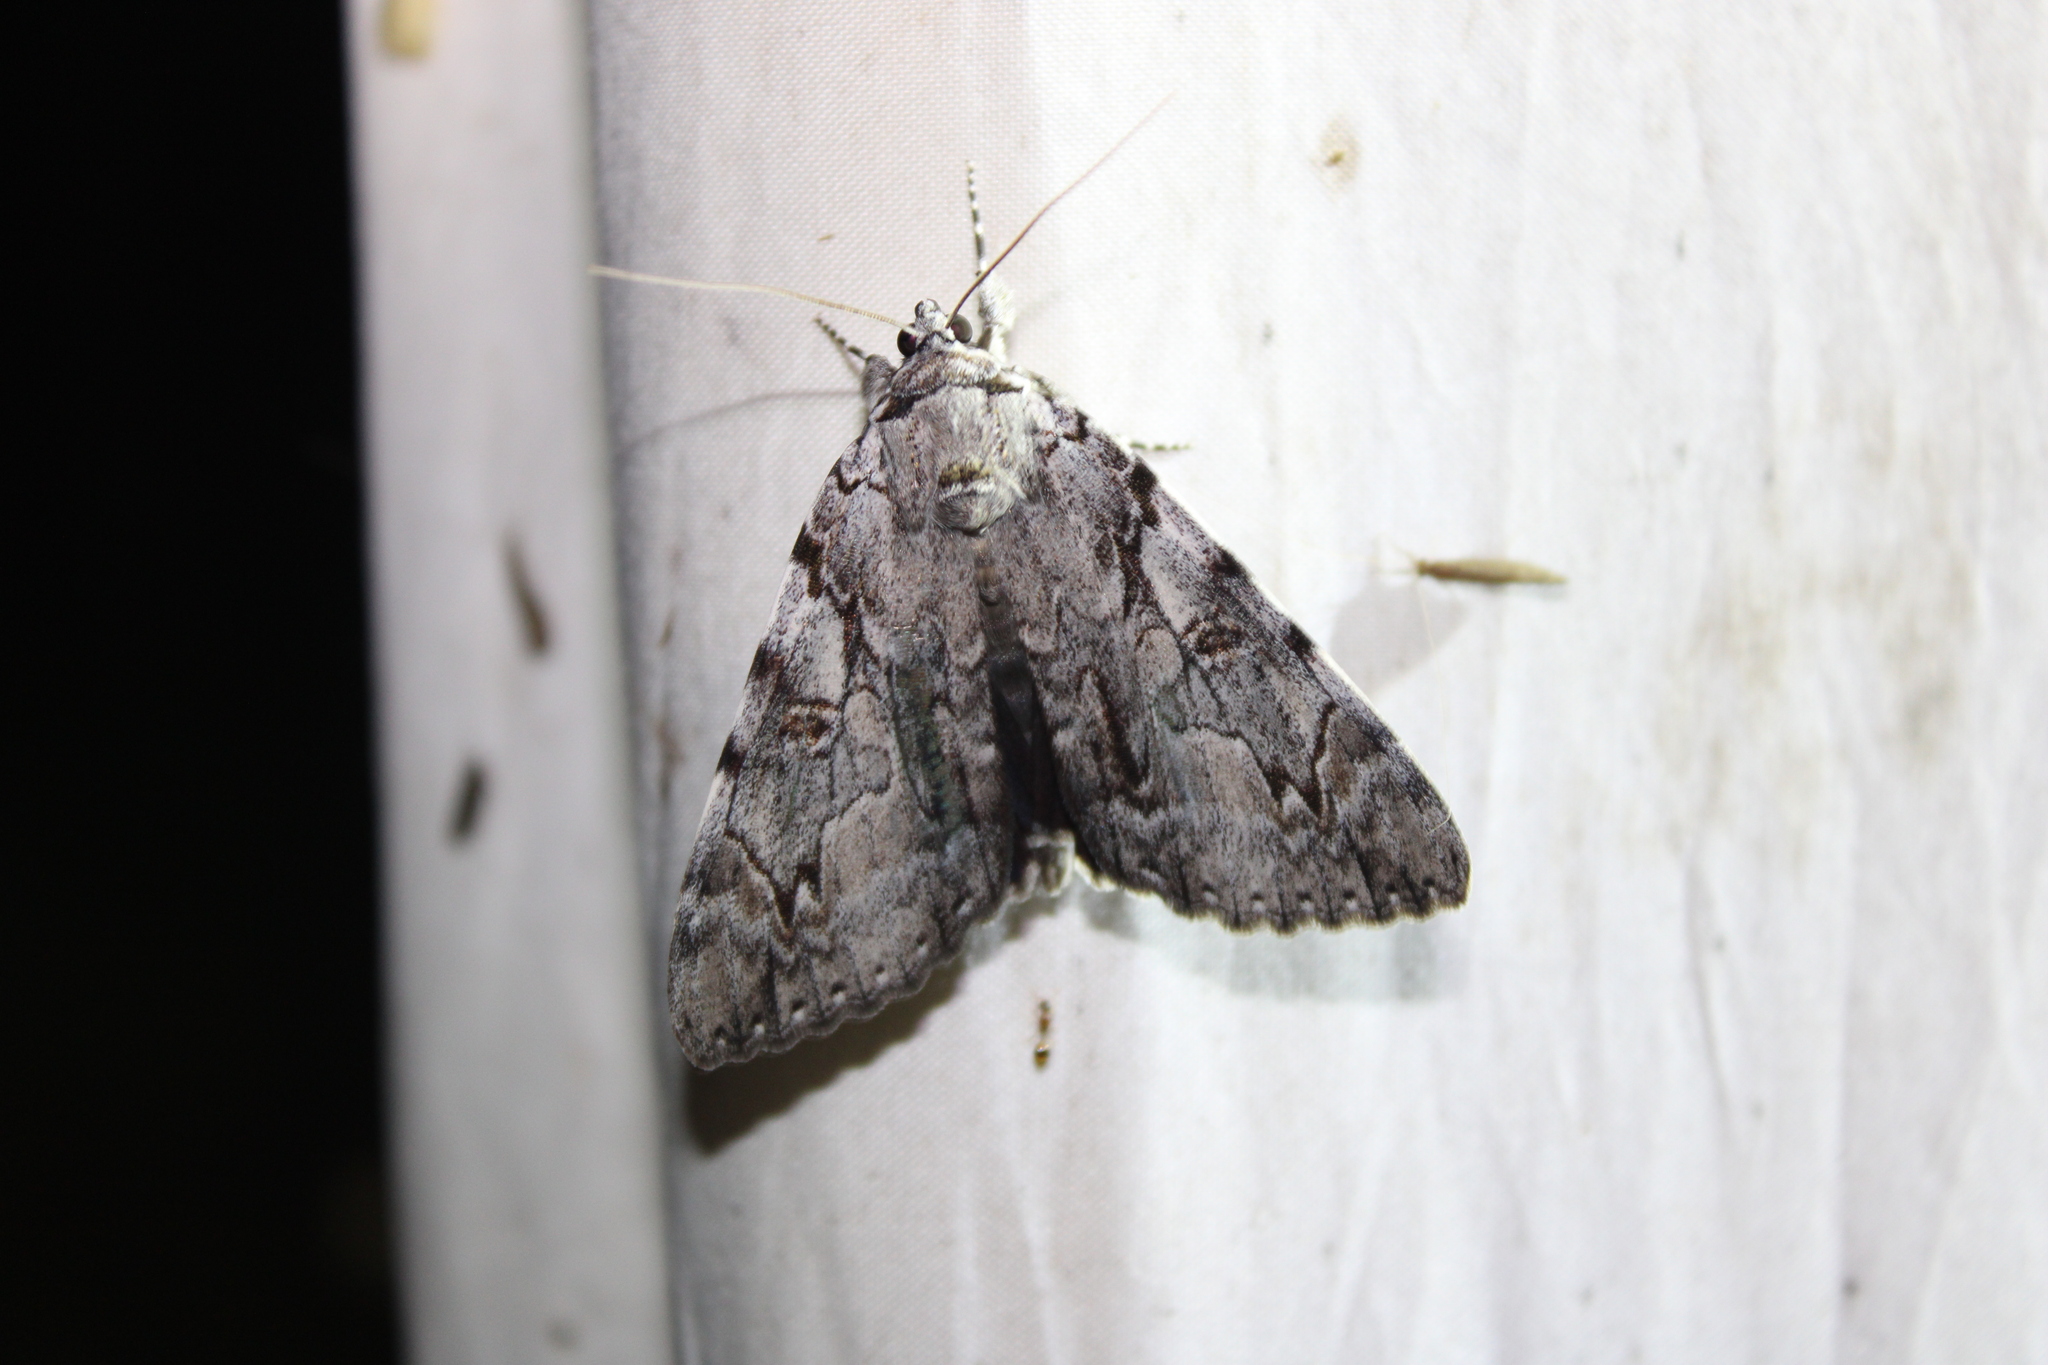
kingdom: Animalia
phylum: Arthropoda
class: Insecta
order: Lepidoptera
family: Erebidae
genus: Catocala
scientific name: Catocala dejecta
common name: Dejected underwing
